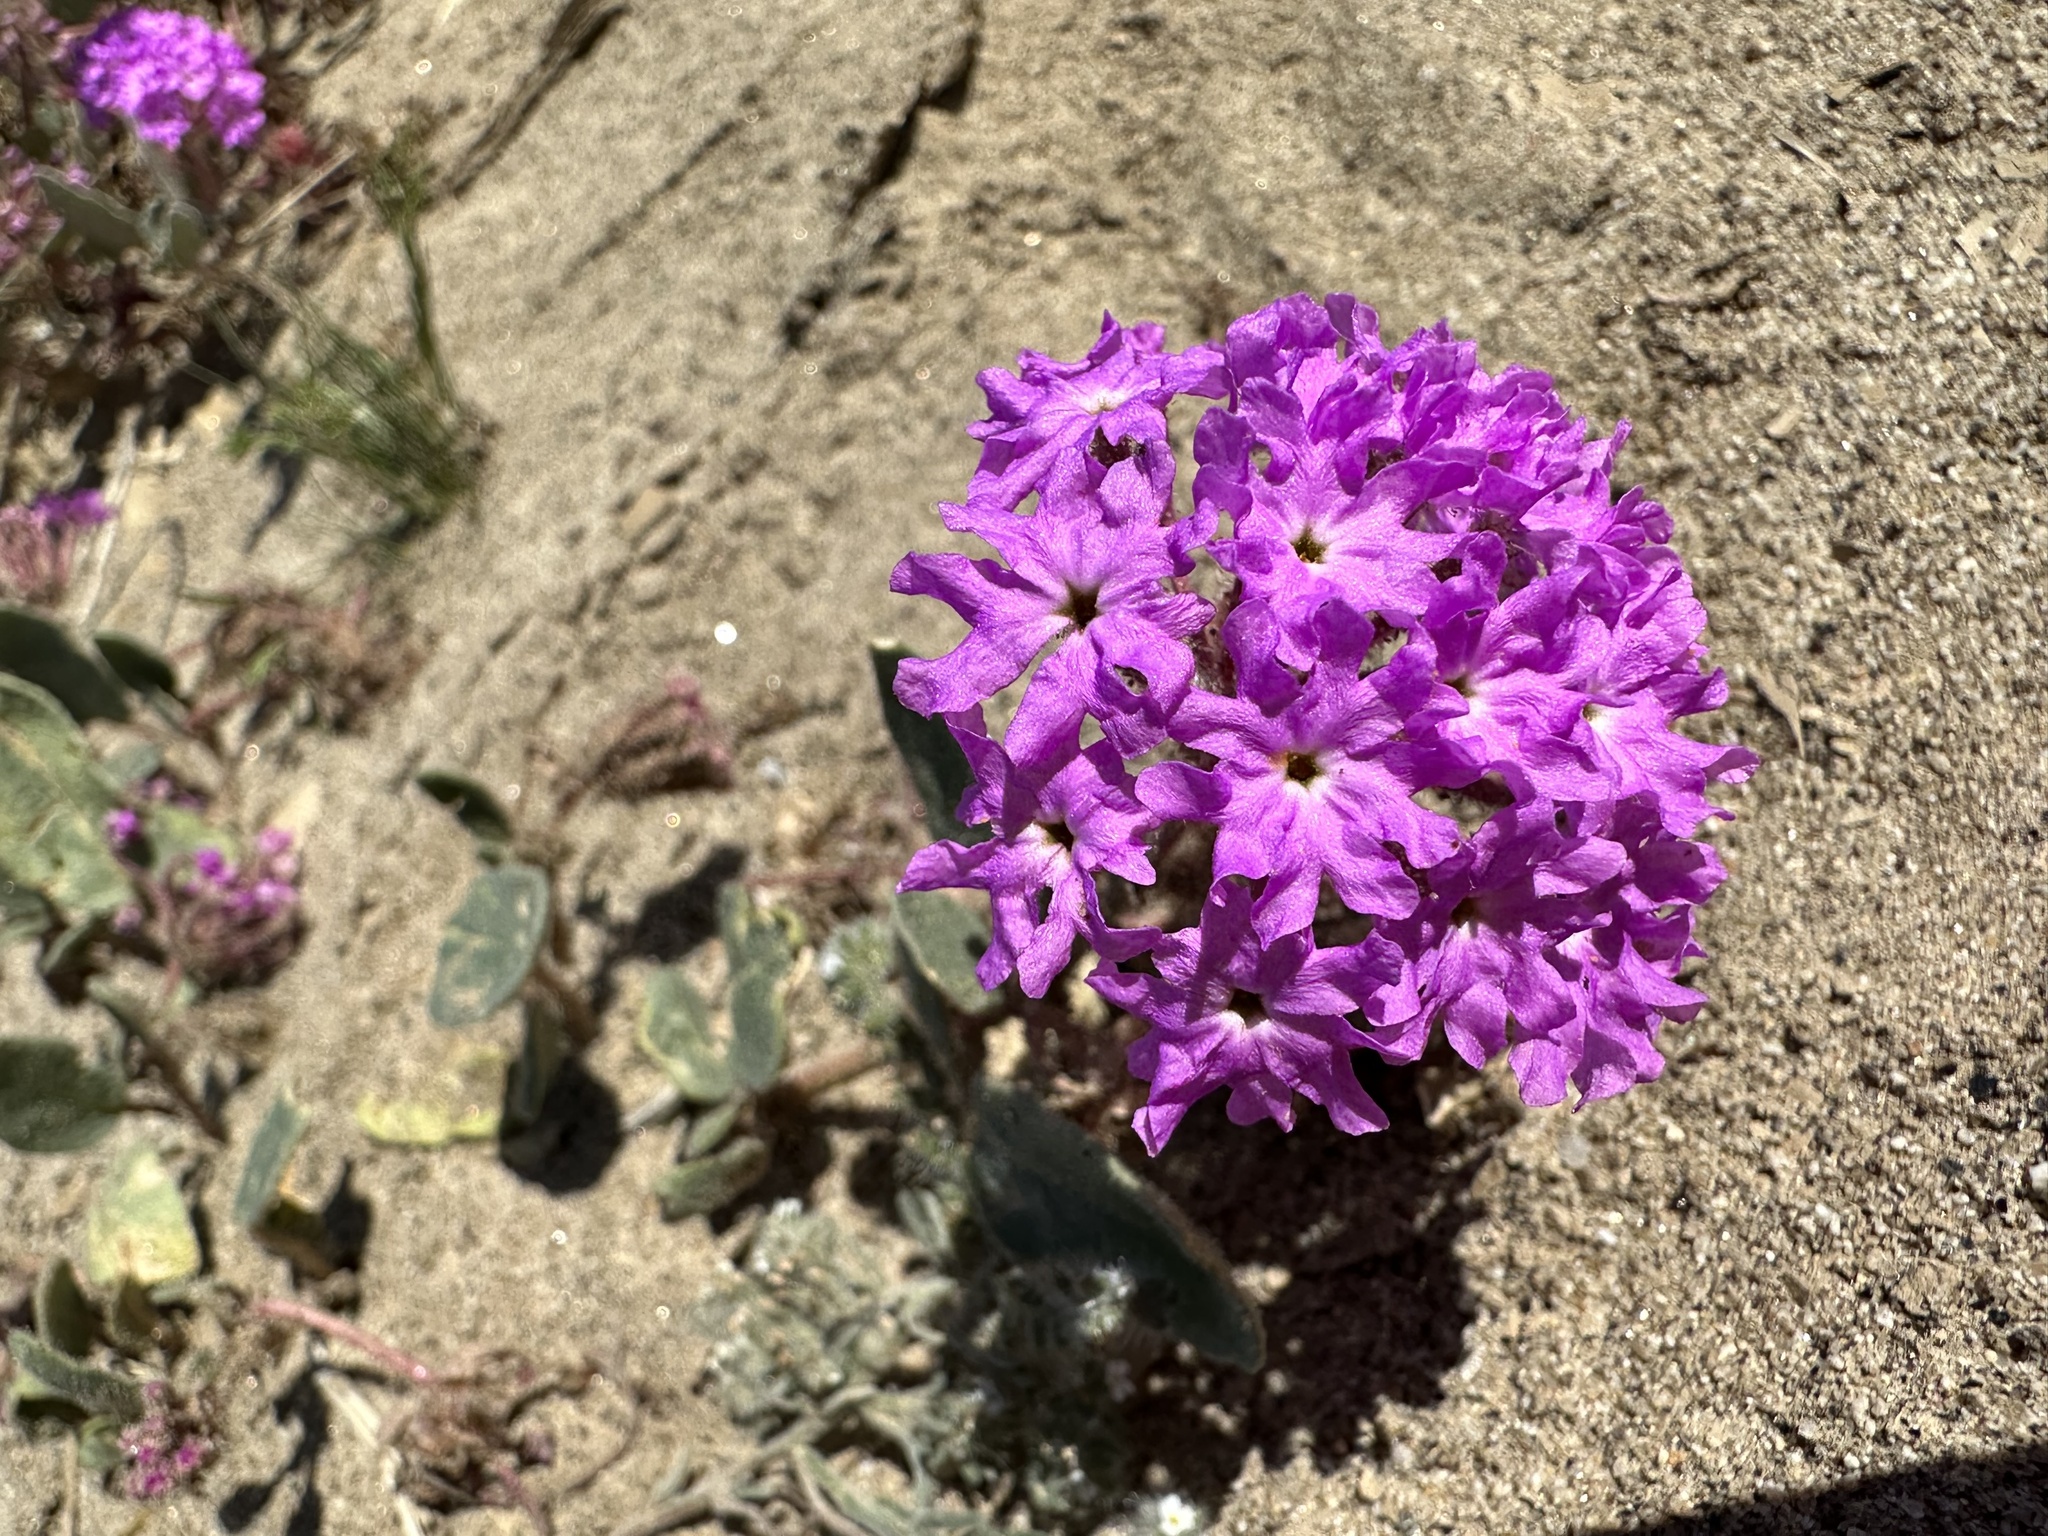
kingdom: Plantae
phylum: Tracheophyta
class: Magnoliopsida
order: Caryophyllales
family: Nyctaginaceae
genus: Abronia
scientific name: Abronia villosa
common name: Desert sand-verbena
